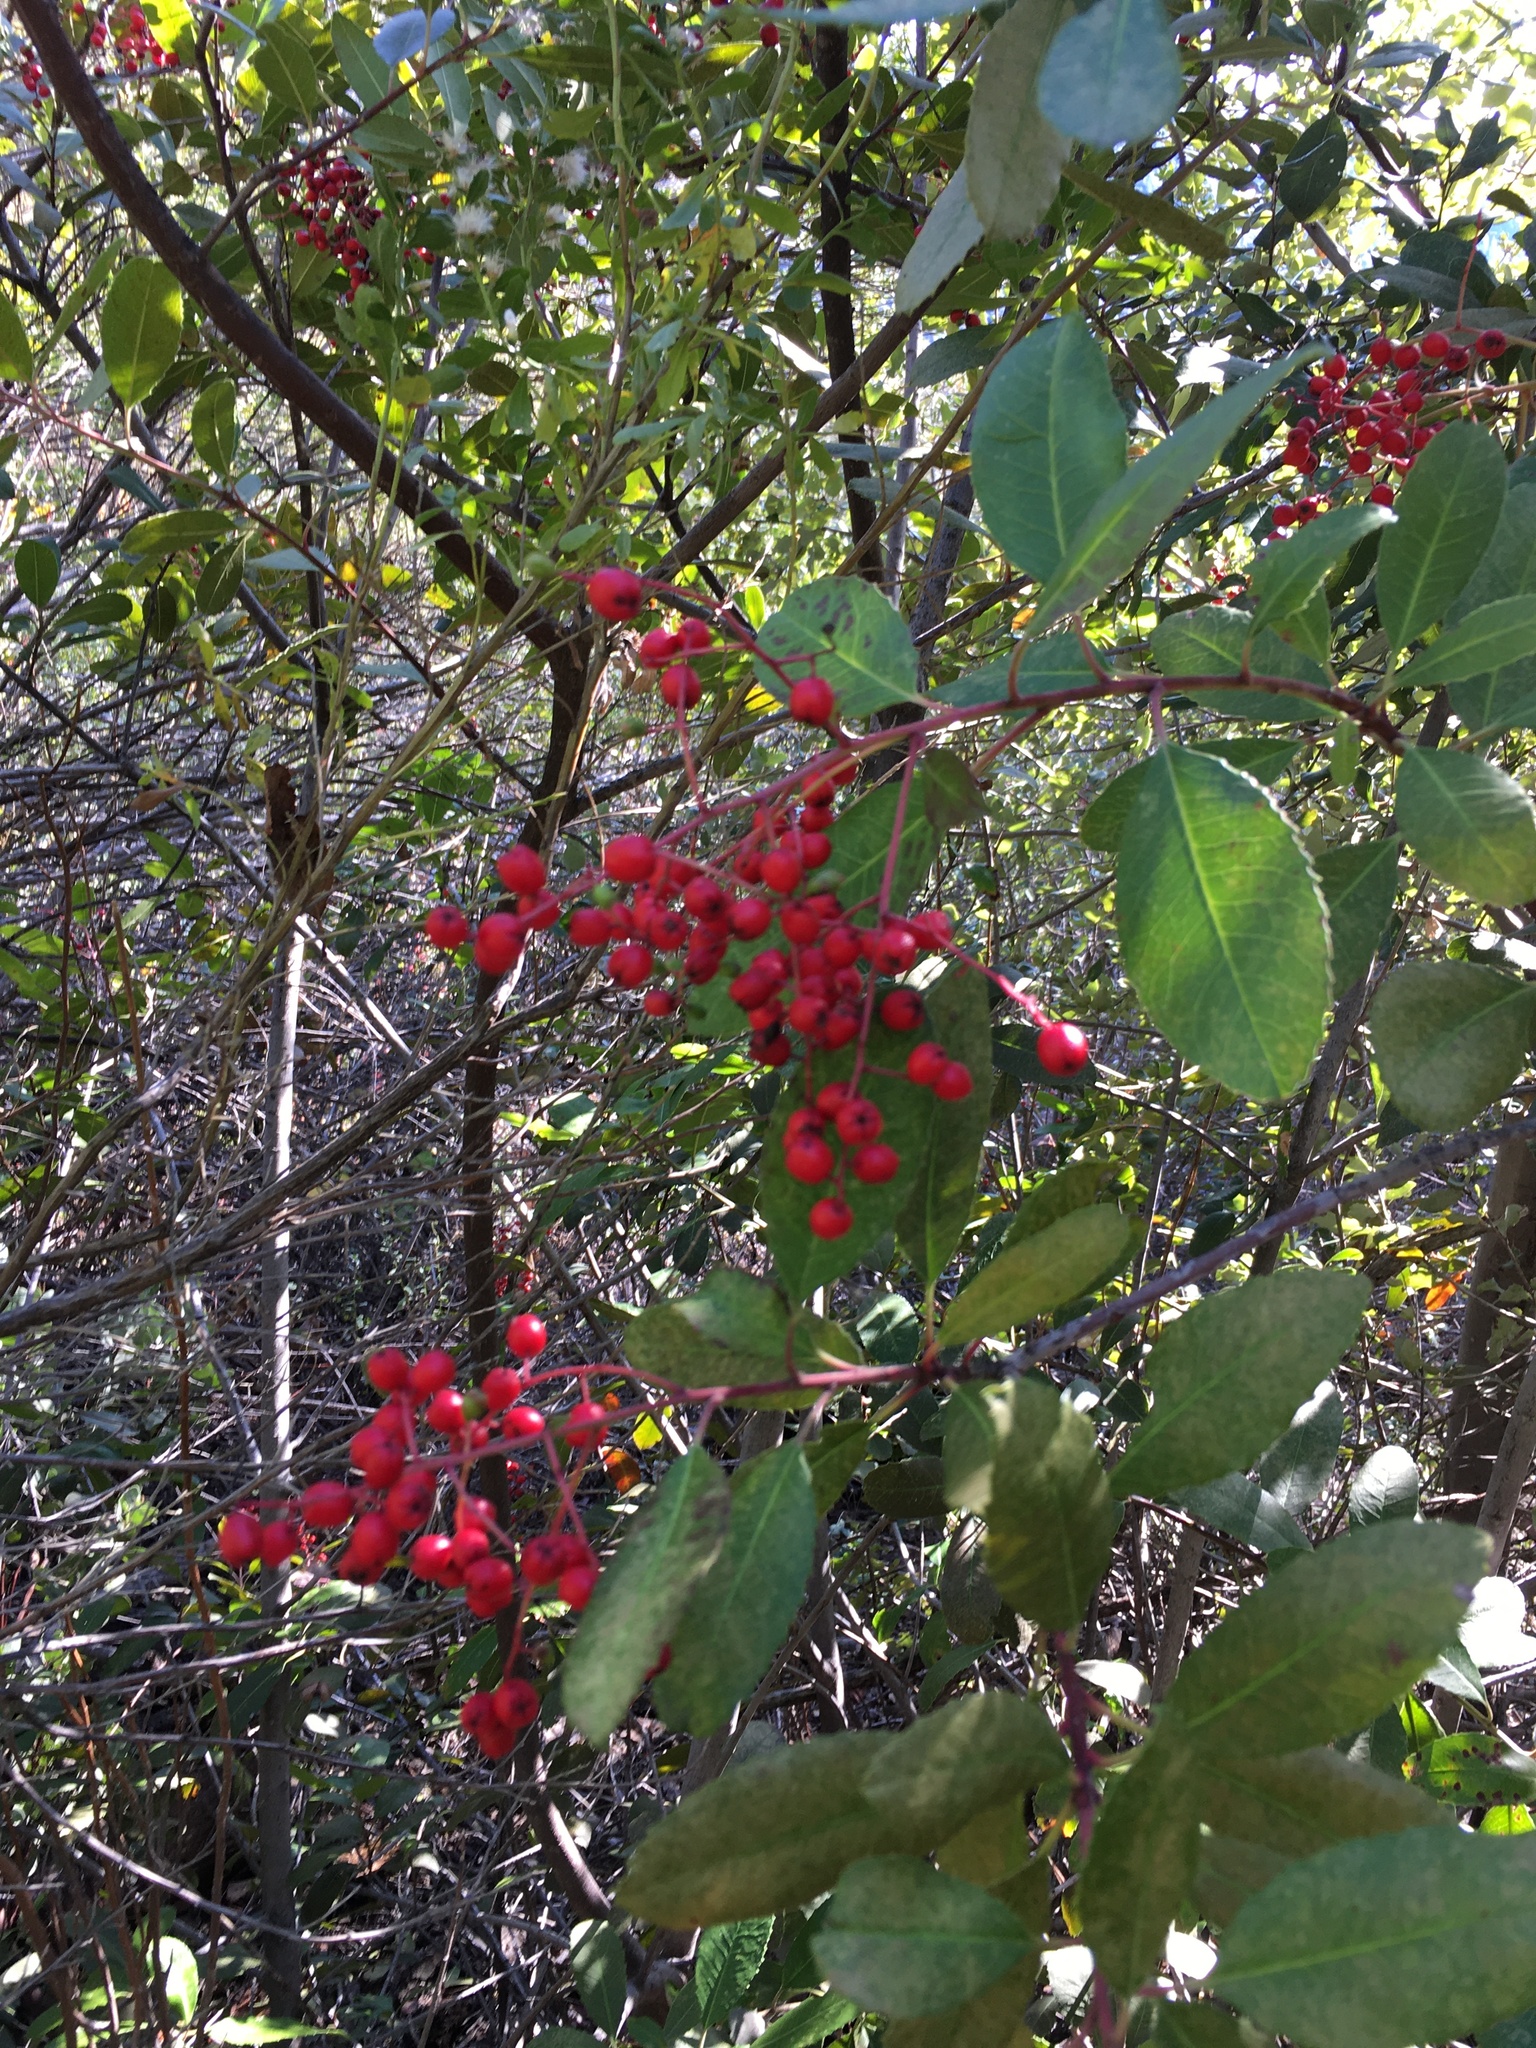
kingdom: Plantae
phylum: Tracheophyta
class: Magnoliopsida
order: Rosales
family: Rosaceae
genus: Heteromeles
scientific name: Heteromeles arbutifolia
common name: California-holly
